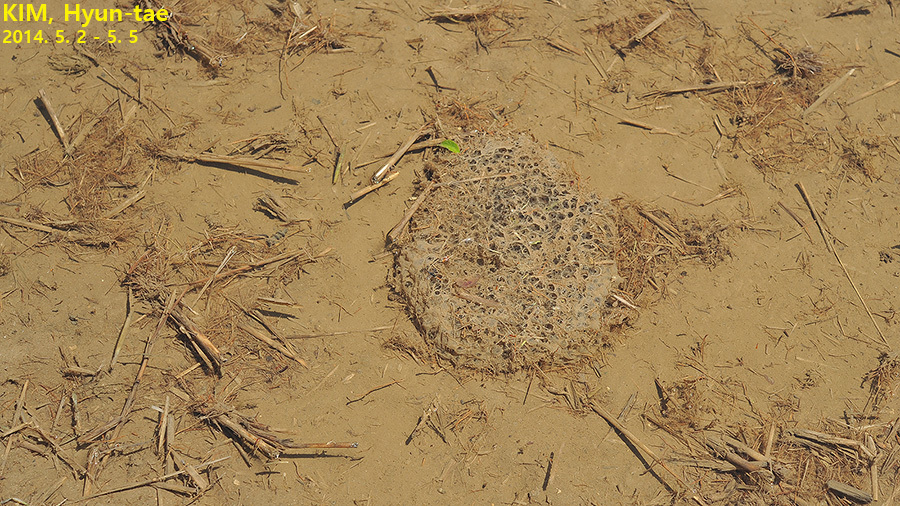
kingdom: Animalia
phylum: Chordata
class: Amphibia
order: Anura
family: Ranidae
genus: Pelophylax
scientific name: Pelophylax nigromaculatus
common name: Black-spotted pond frog
